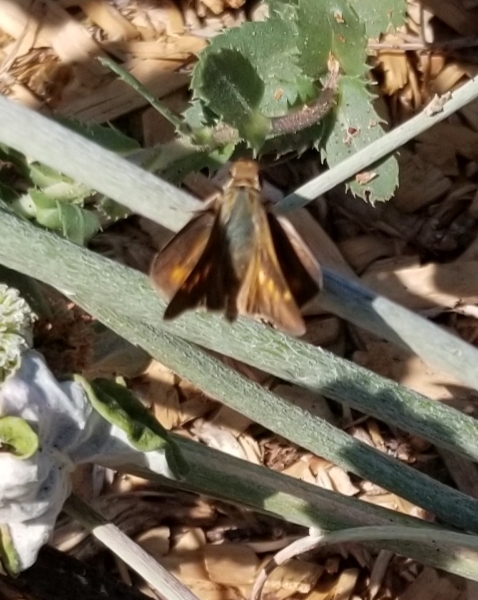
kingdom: Animalia
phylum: Arthropoda
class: Insecta
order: Lepidoptera
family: Hesperiidae
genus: Lon
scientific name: Lon melane
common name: Umber skipper
